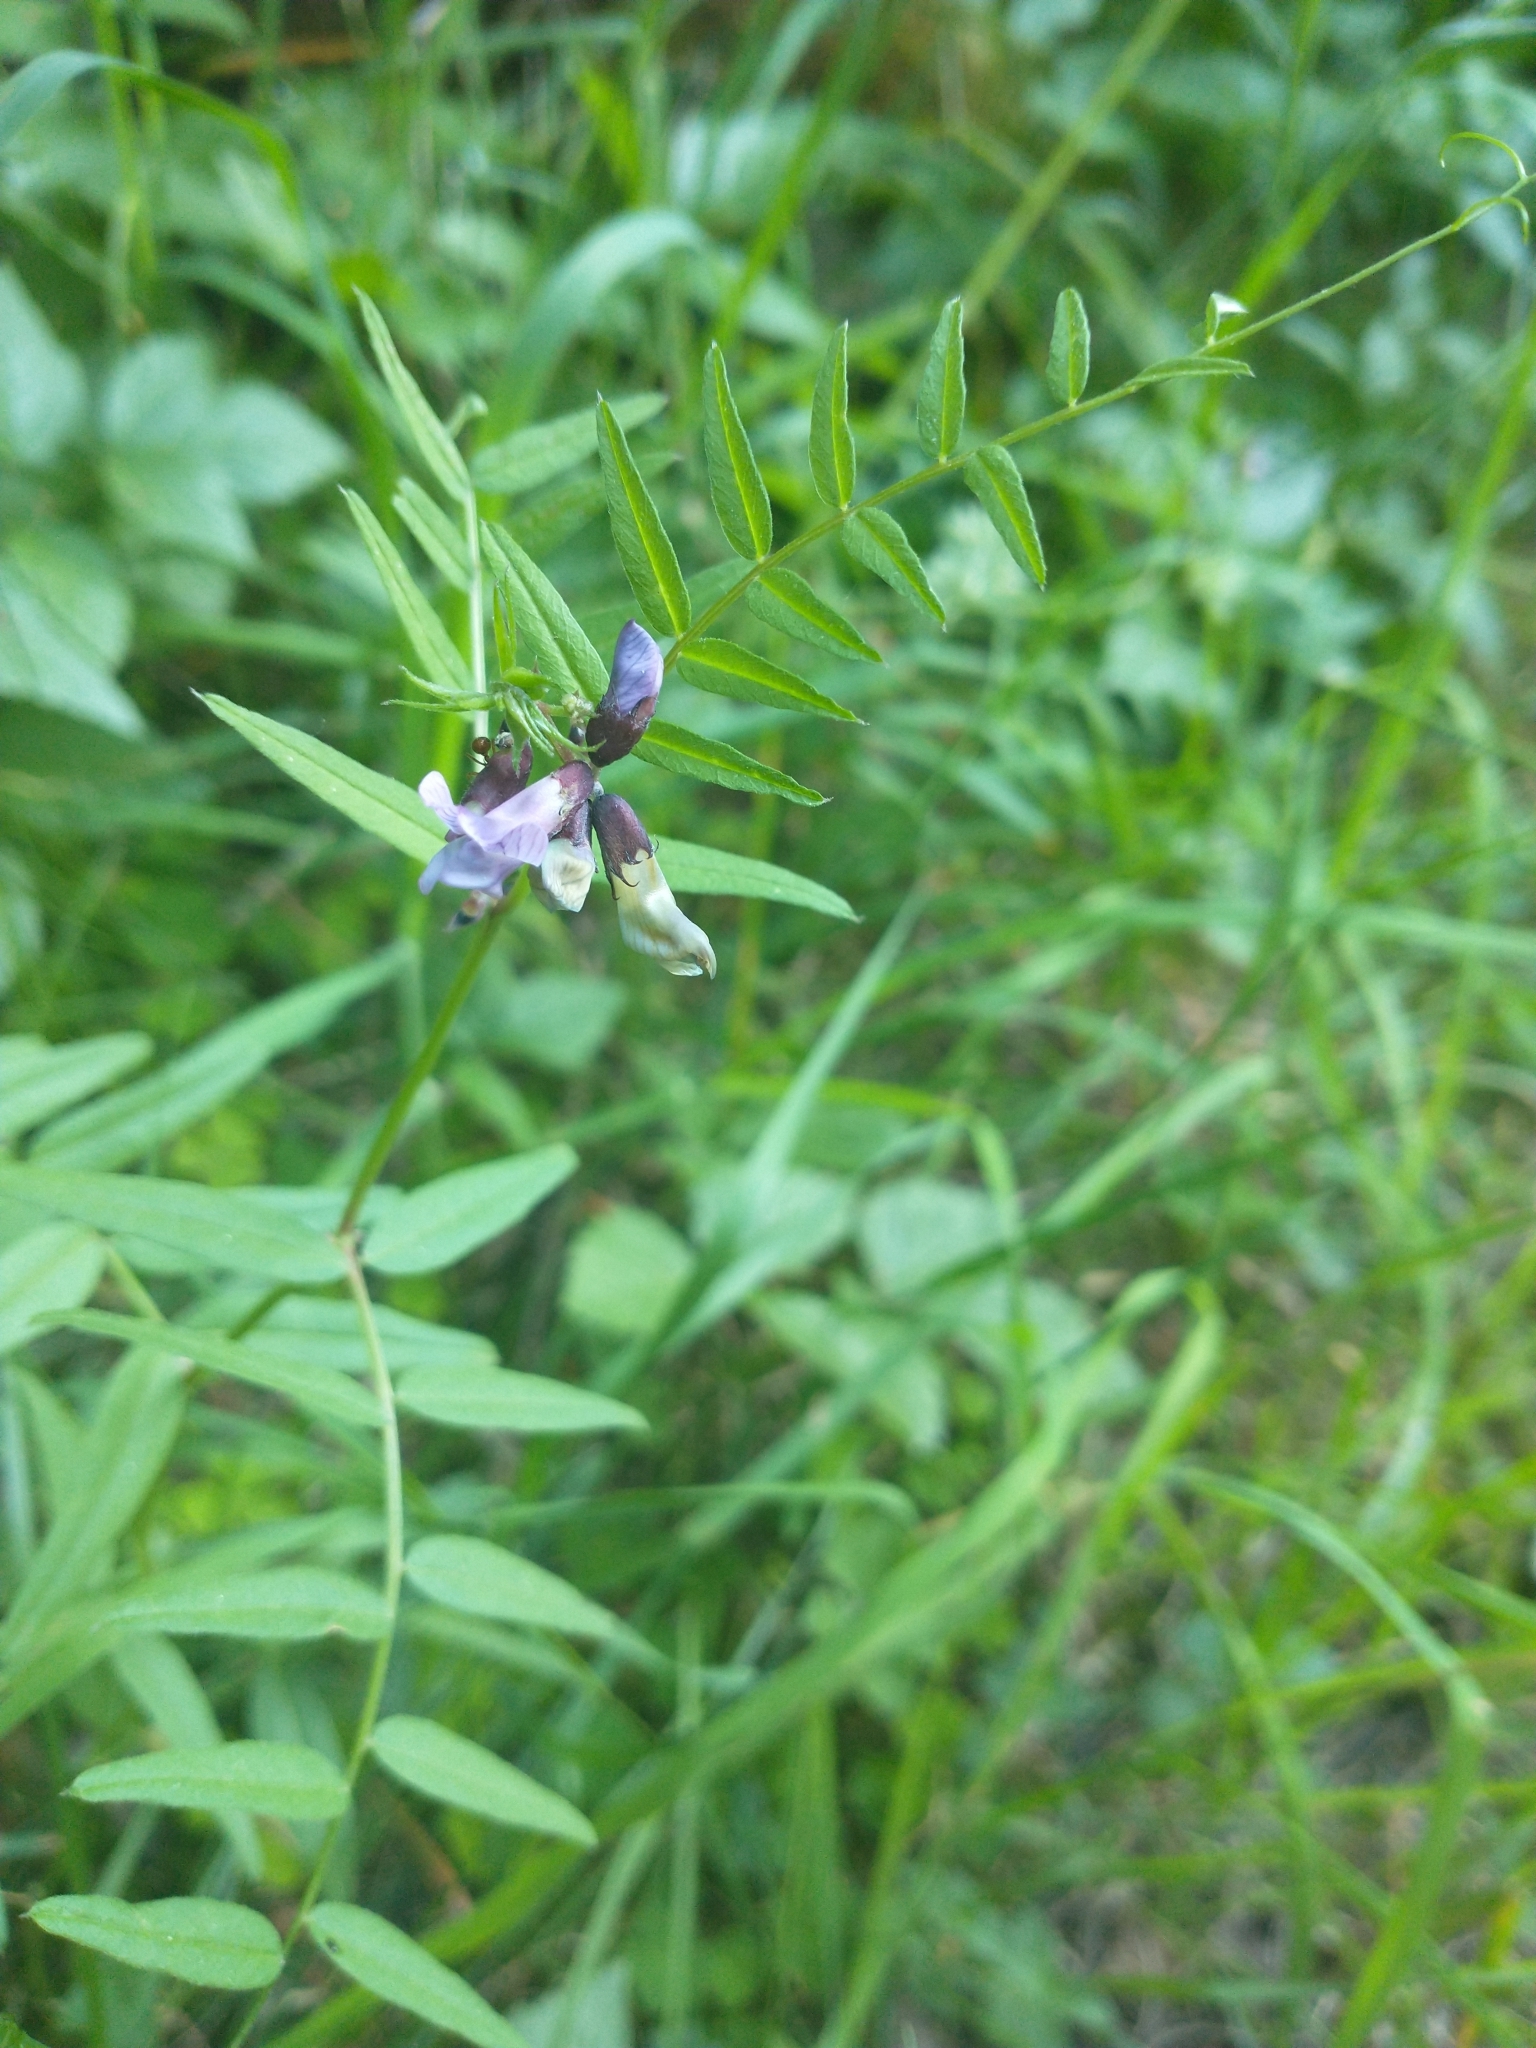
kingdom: Plantae
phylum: Tracheophyta
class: Magnoliopsida
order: Fabales
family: Fabaceae
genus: Vicia
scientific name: Vicia sepium
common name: Bush vetch
